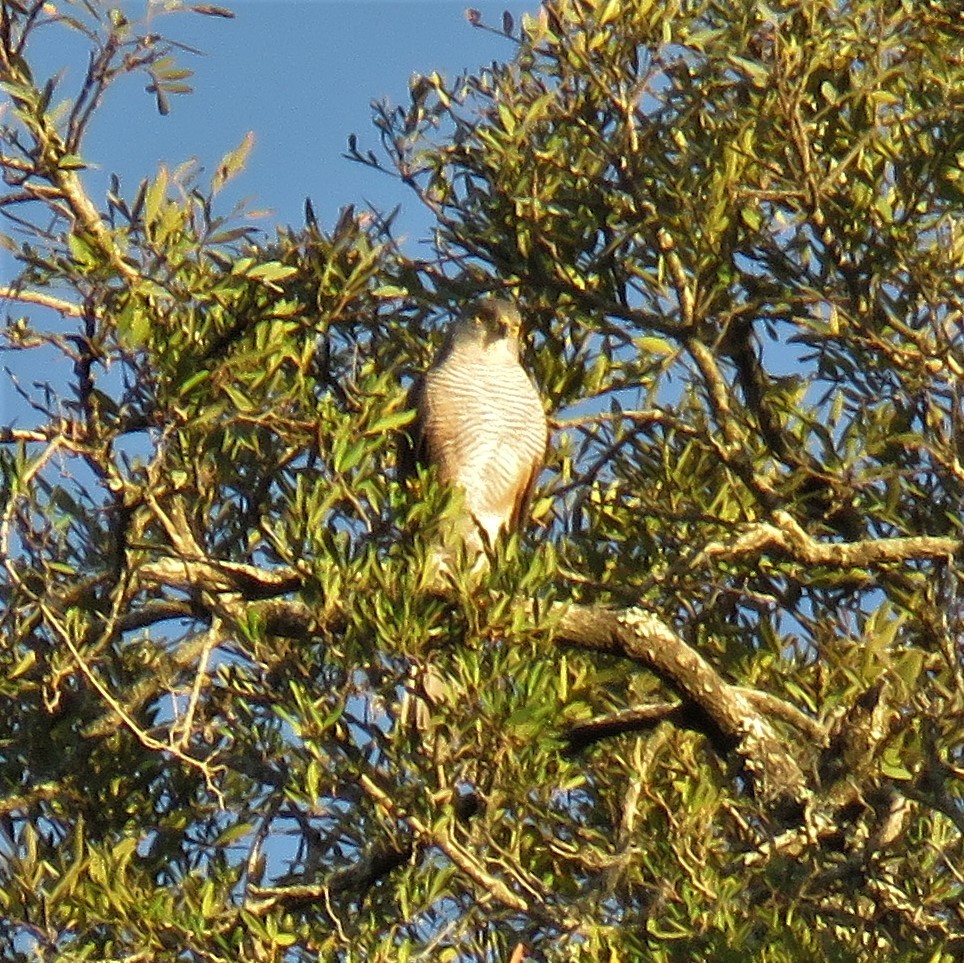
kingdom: Animalia
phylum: Chordata
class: Aves
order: Accipitriformes
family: Accipitridae
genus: Accipiter
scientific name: Accipiter tachiro
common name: African goshawk
